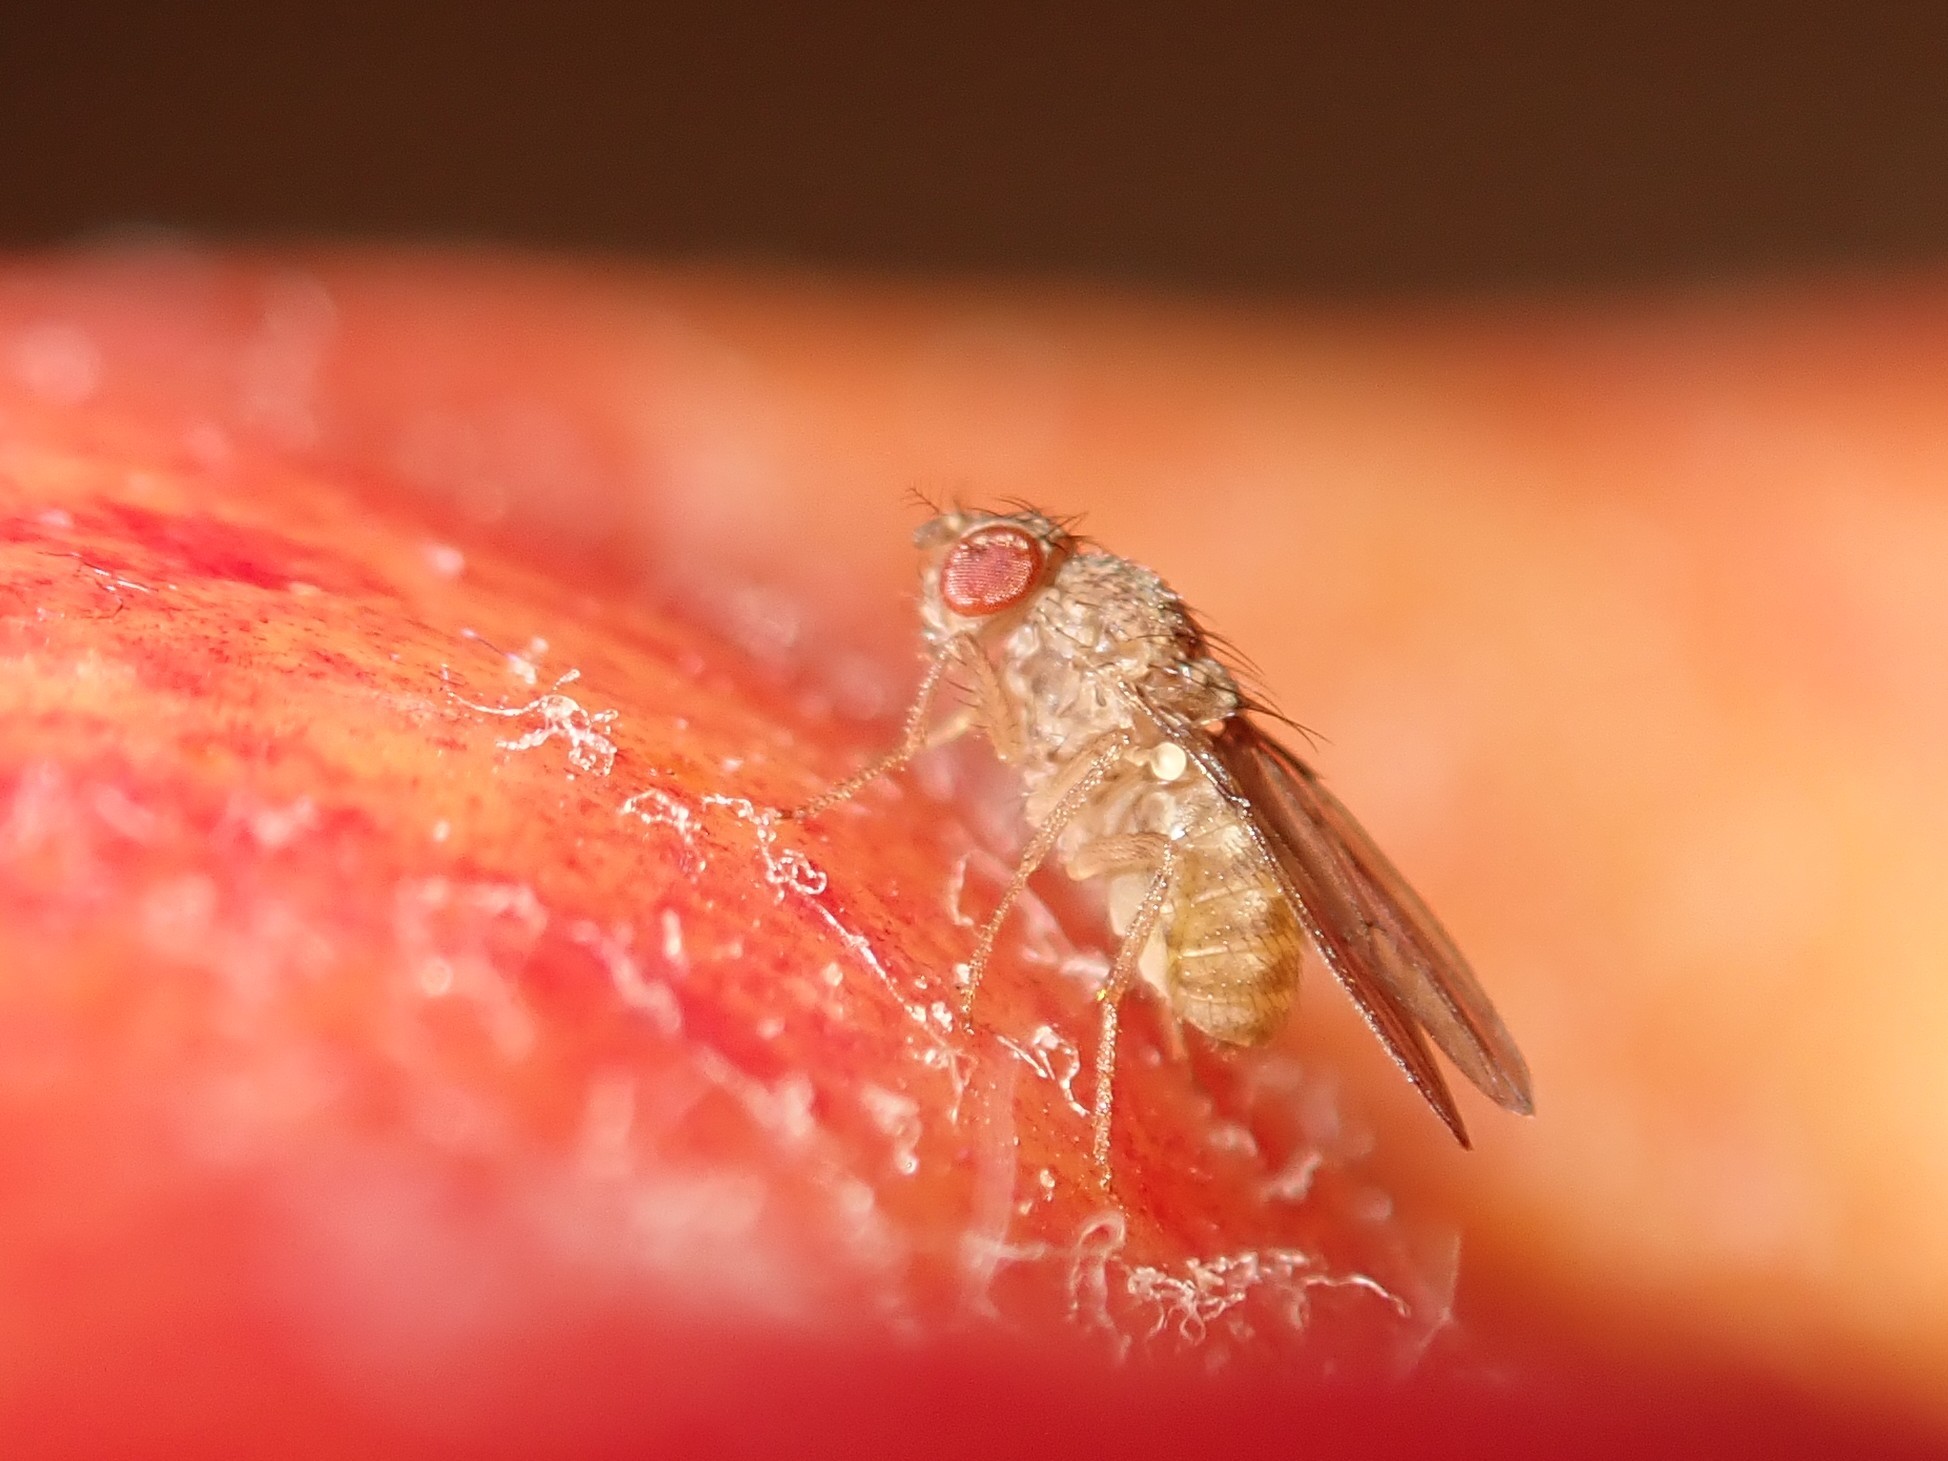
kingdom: Animalia
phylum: Arthropoda
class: Insecta
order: Diptera
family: Drosophilidae
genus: Drosophila
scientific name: Drosophila repleta
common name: Pomace fly
